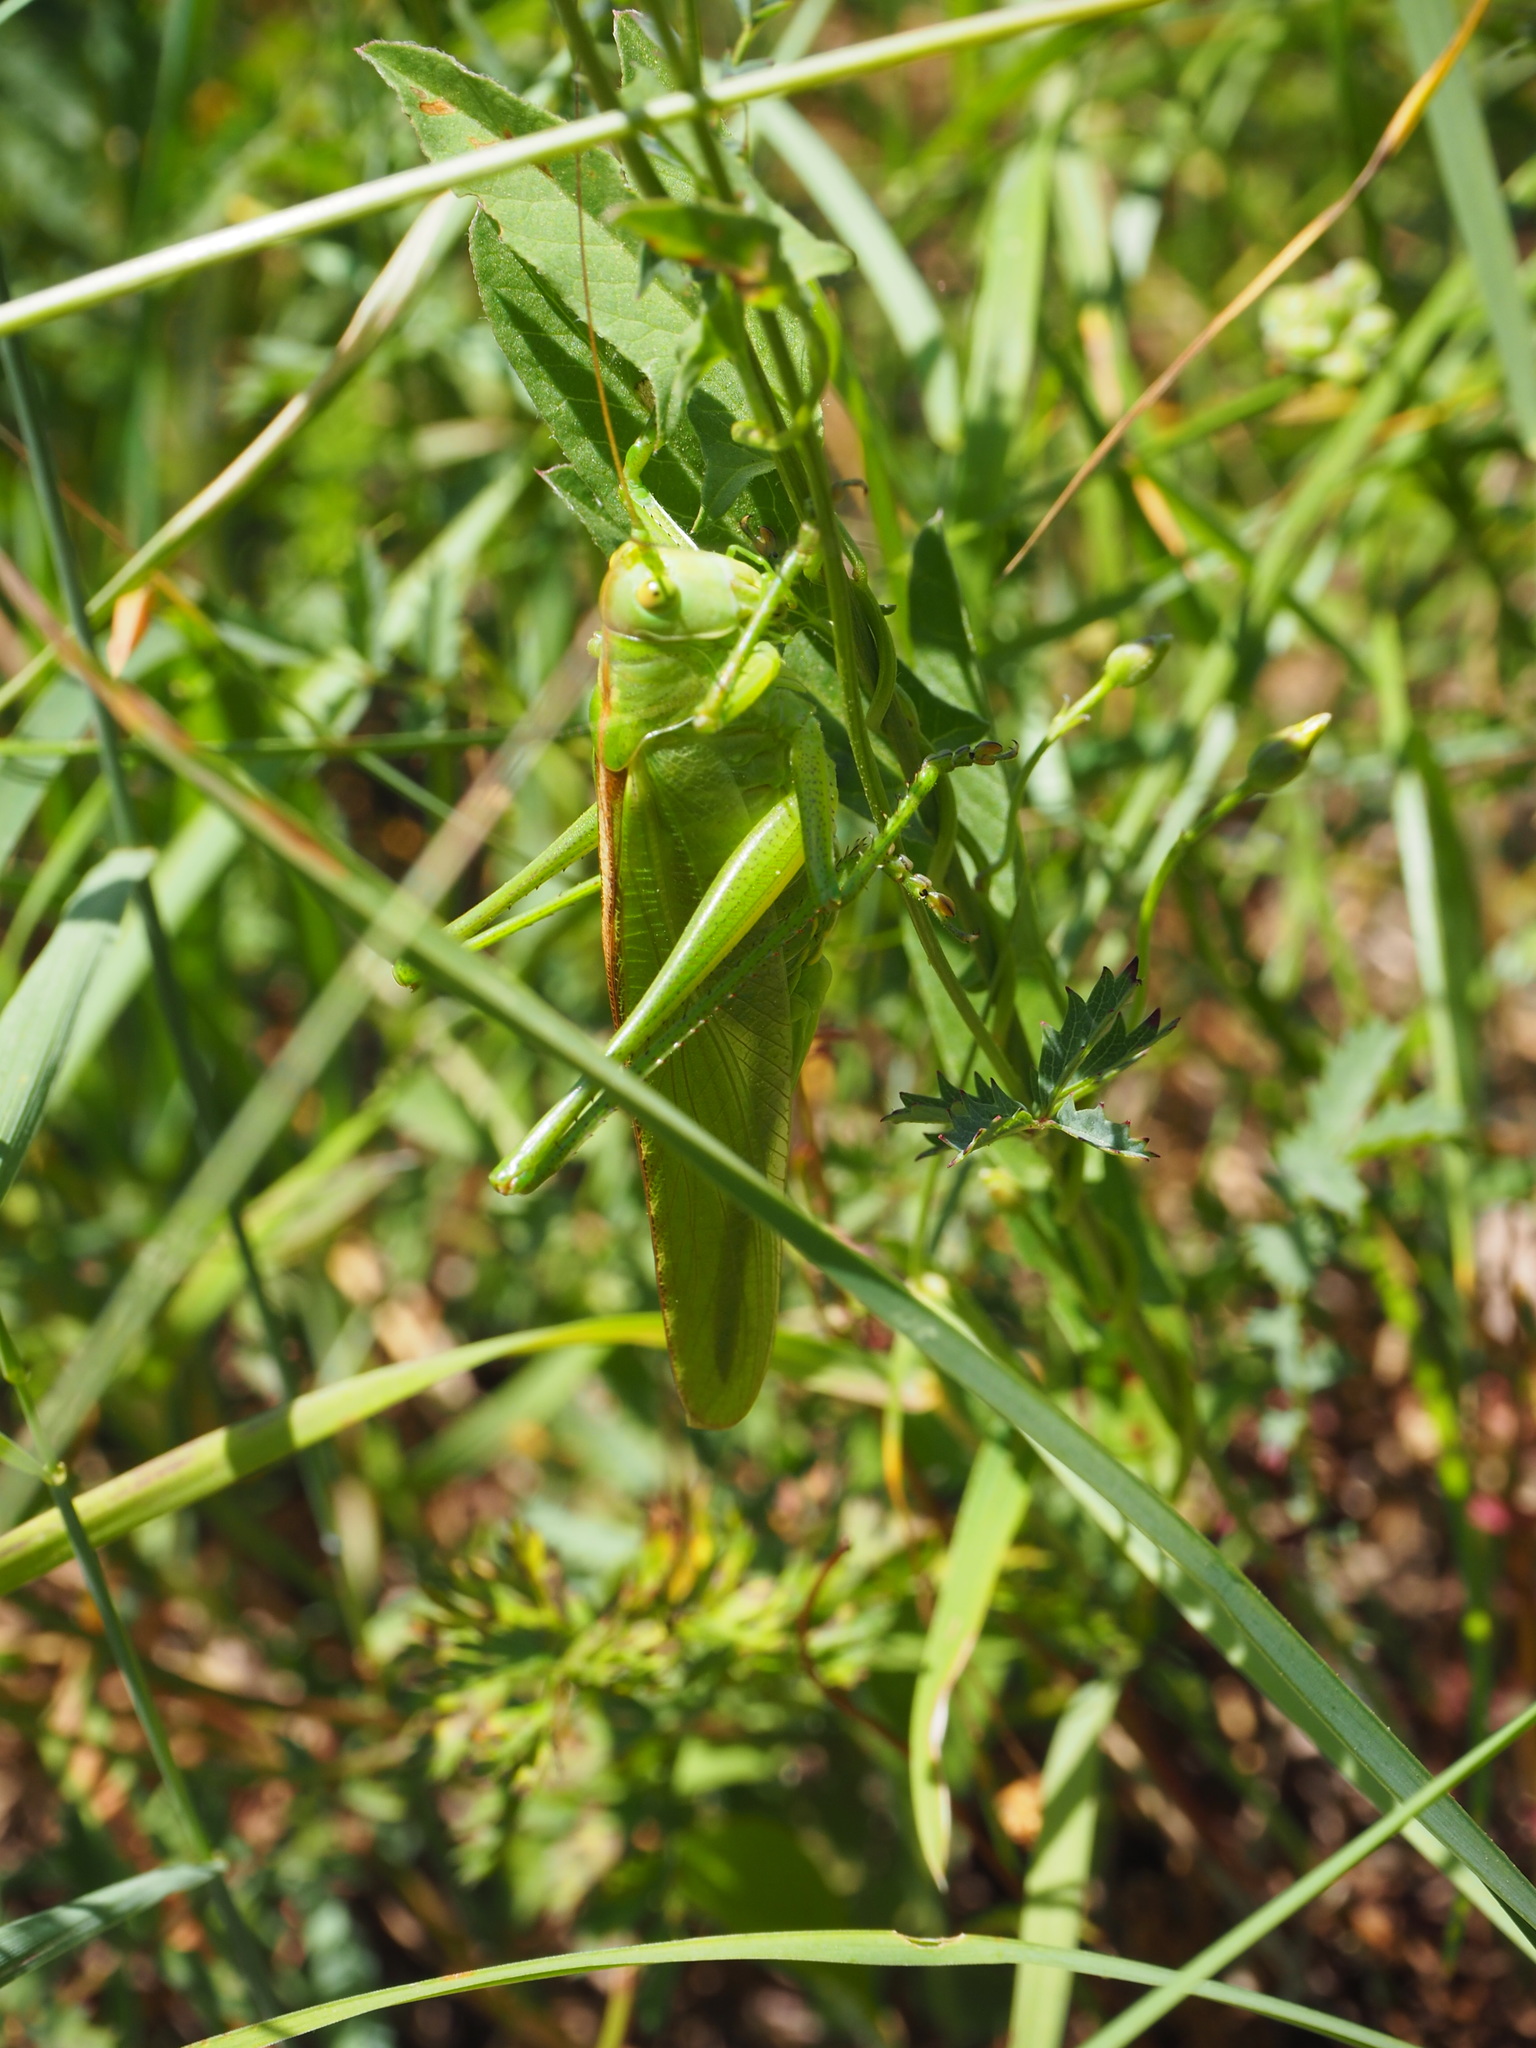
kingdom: Animalia
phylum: Arthropoda
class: Insecta
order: Orthoptera
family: Tettigoniidae
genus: Tettigonia
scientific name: Tettigonia viridissima
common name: Great green bush-cricket
